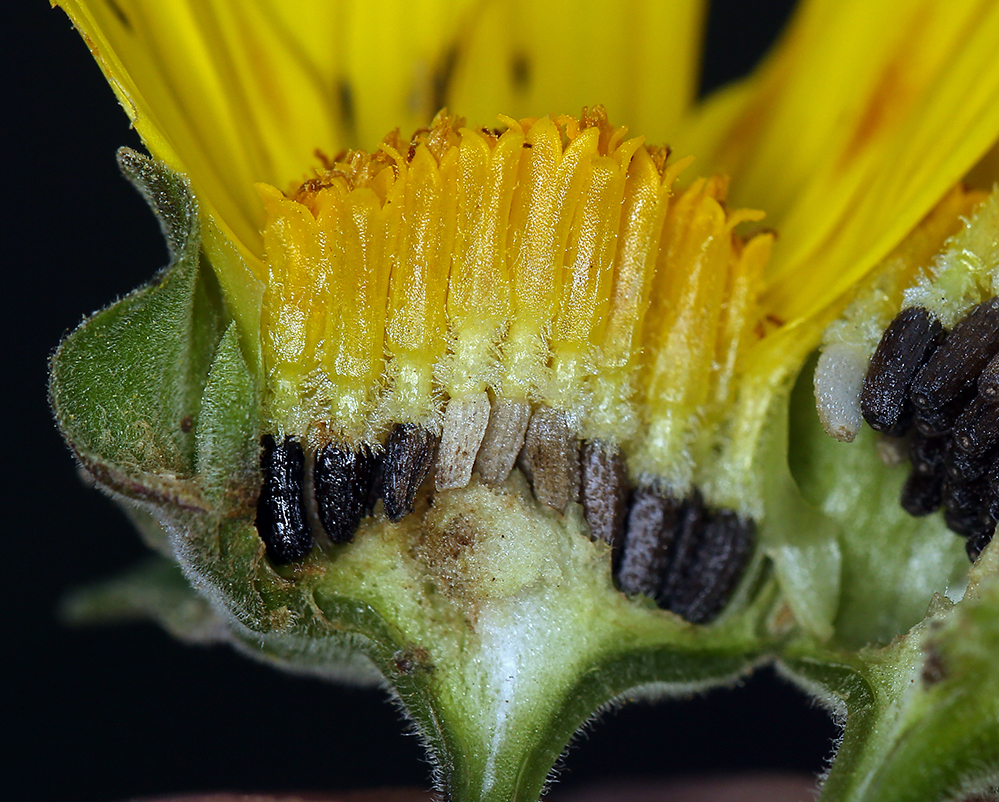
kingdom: Plantae
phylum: Tracheophyta
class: Magnoliopsida
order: Asterales
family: Asteraceae
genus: Venegasia
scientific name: Venegasia carpesioides
